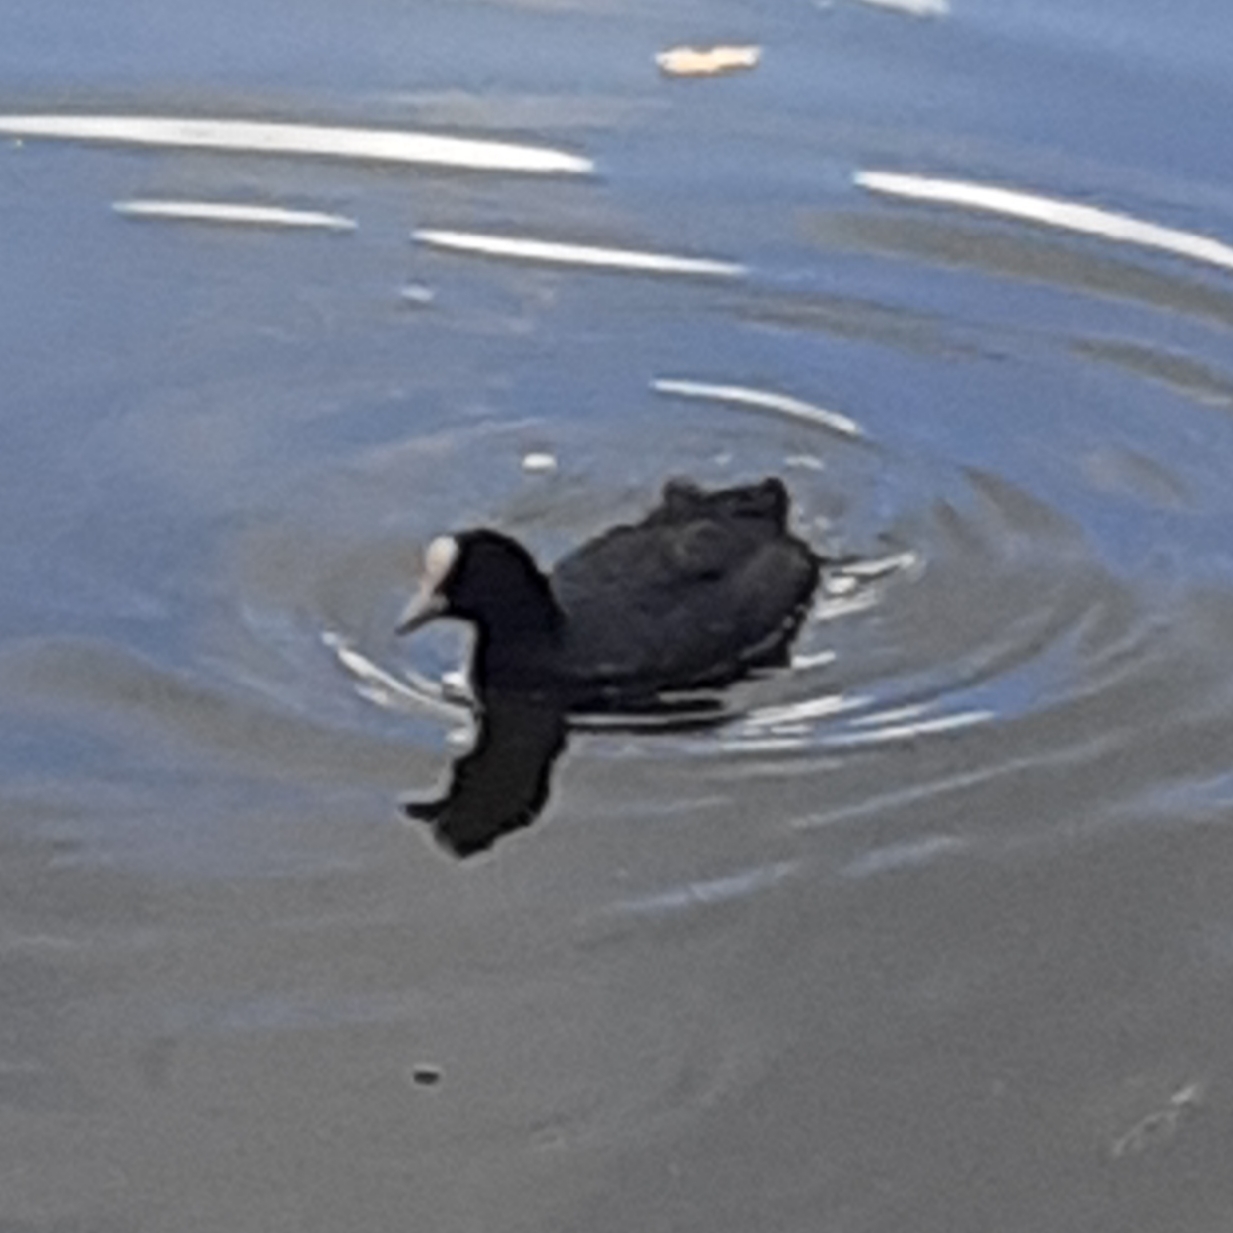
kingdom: Animalia
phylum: Chordata
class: Aves
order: Gruiformes
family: Rallidae
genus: Fulica
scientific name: Fulica atra
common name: Eurasian coot
